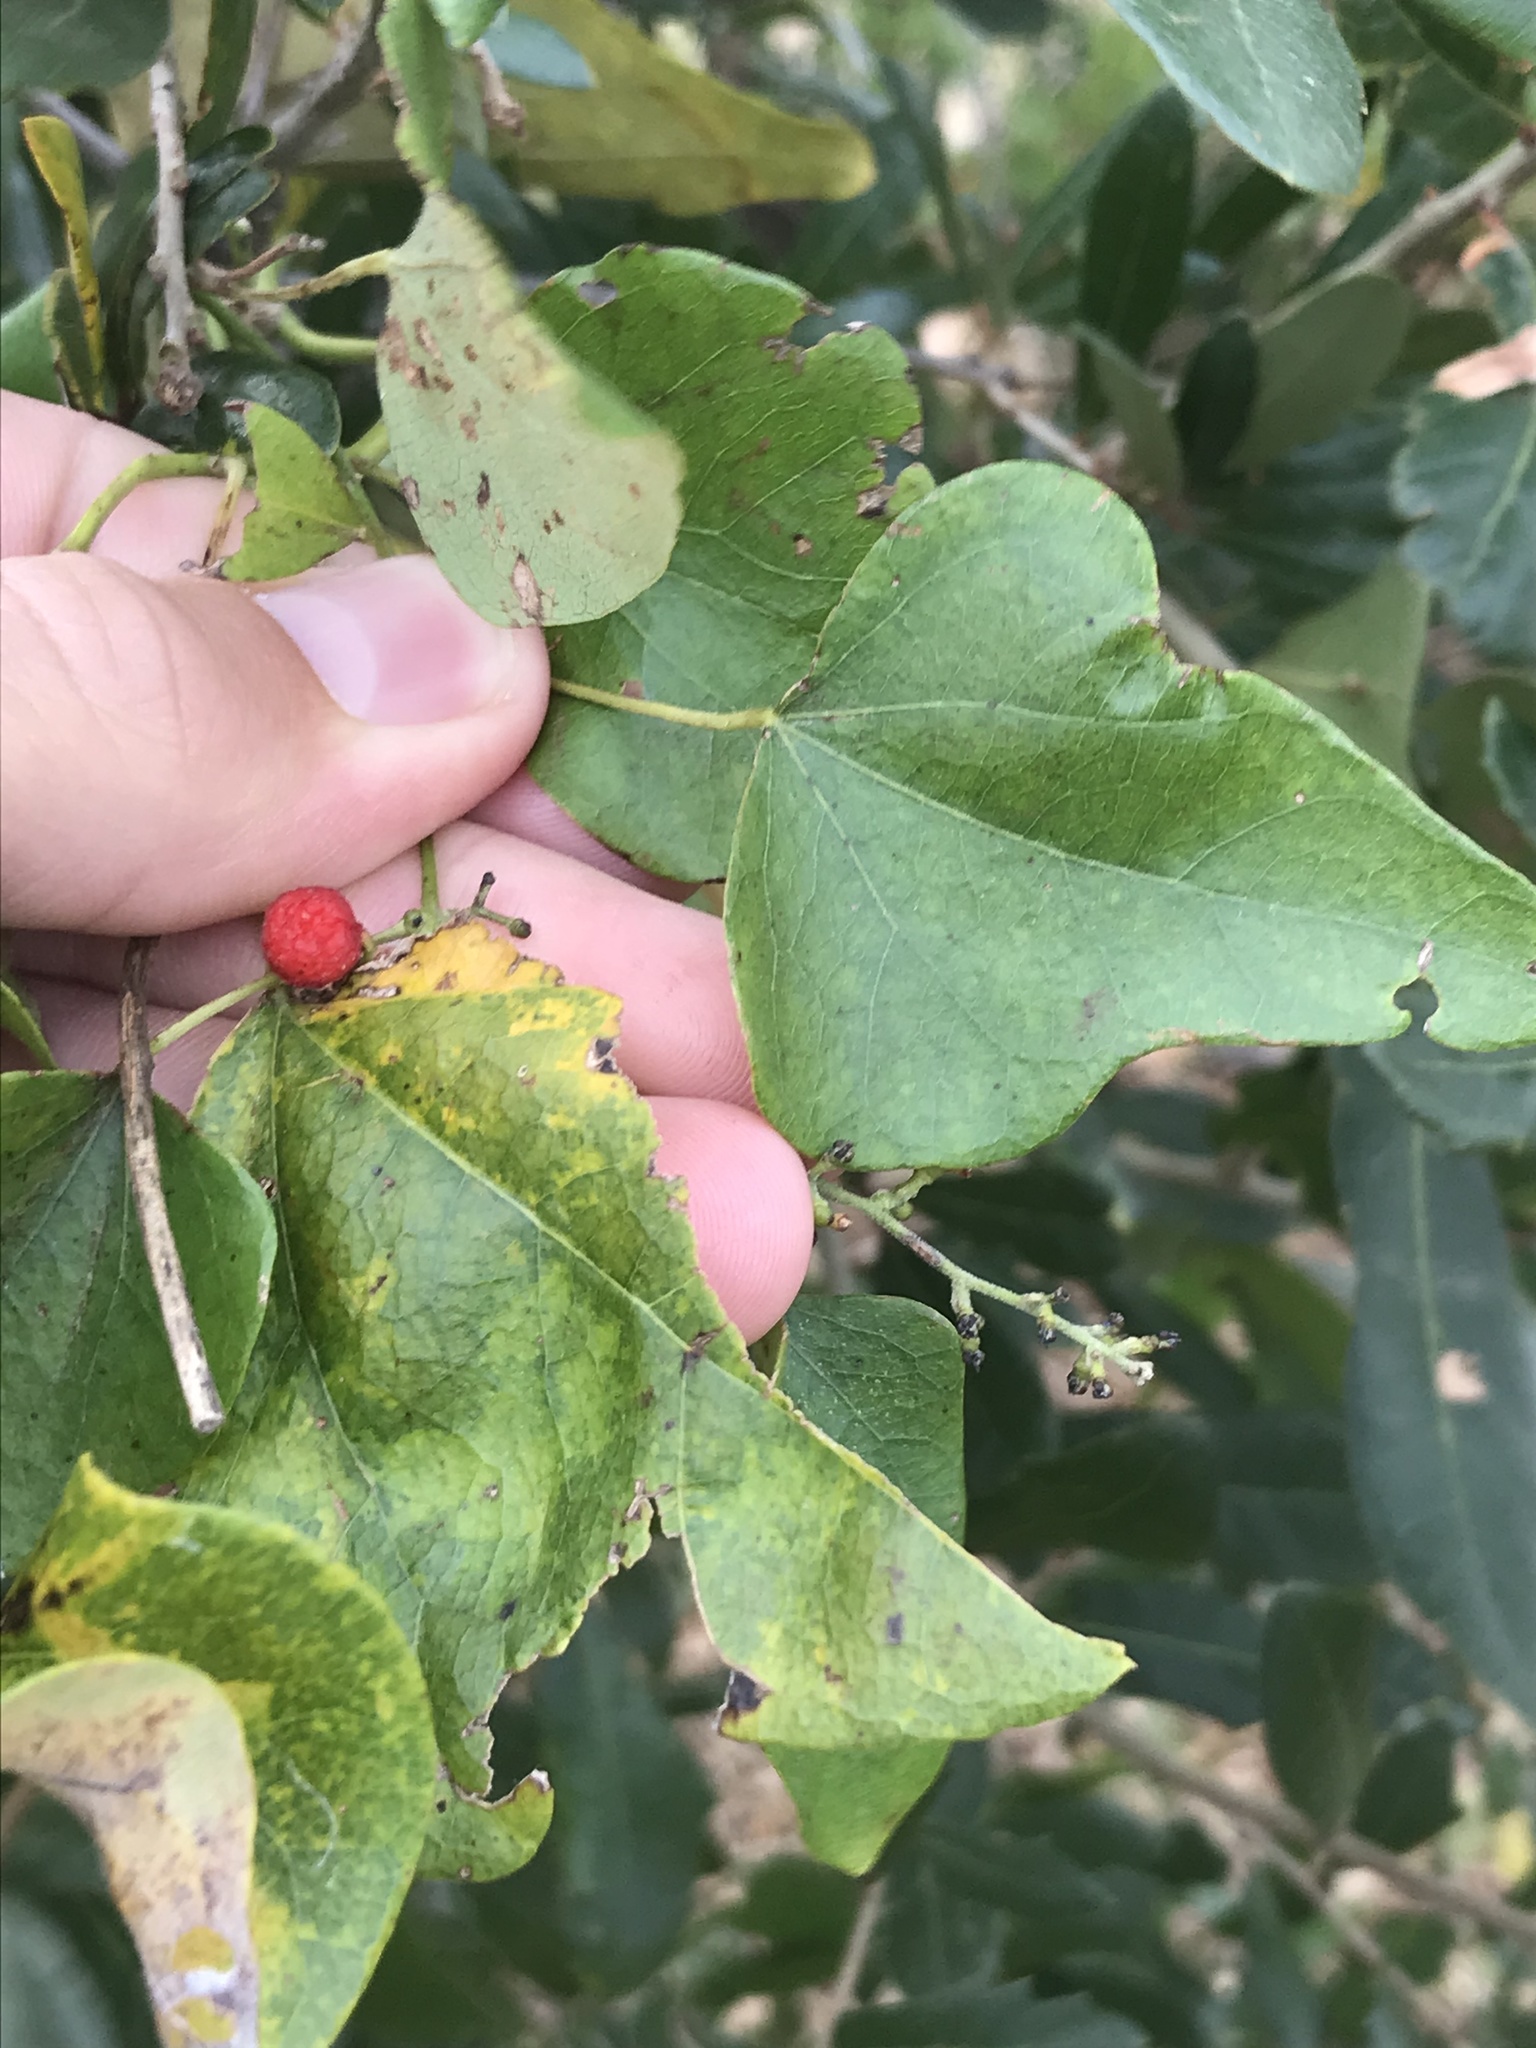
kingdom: Plantae
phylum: Tracheophyta
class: Magnoliopsida
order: Ranunculales
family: Menispermaceae
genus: Cocculus
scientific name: Cocculus carolinus
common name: Carolina moonseed
